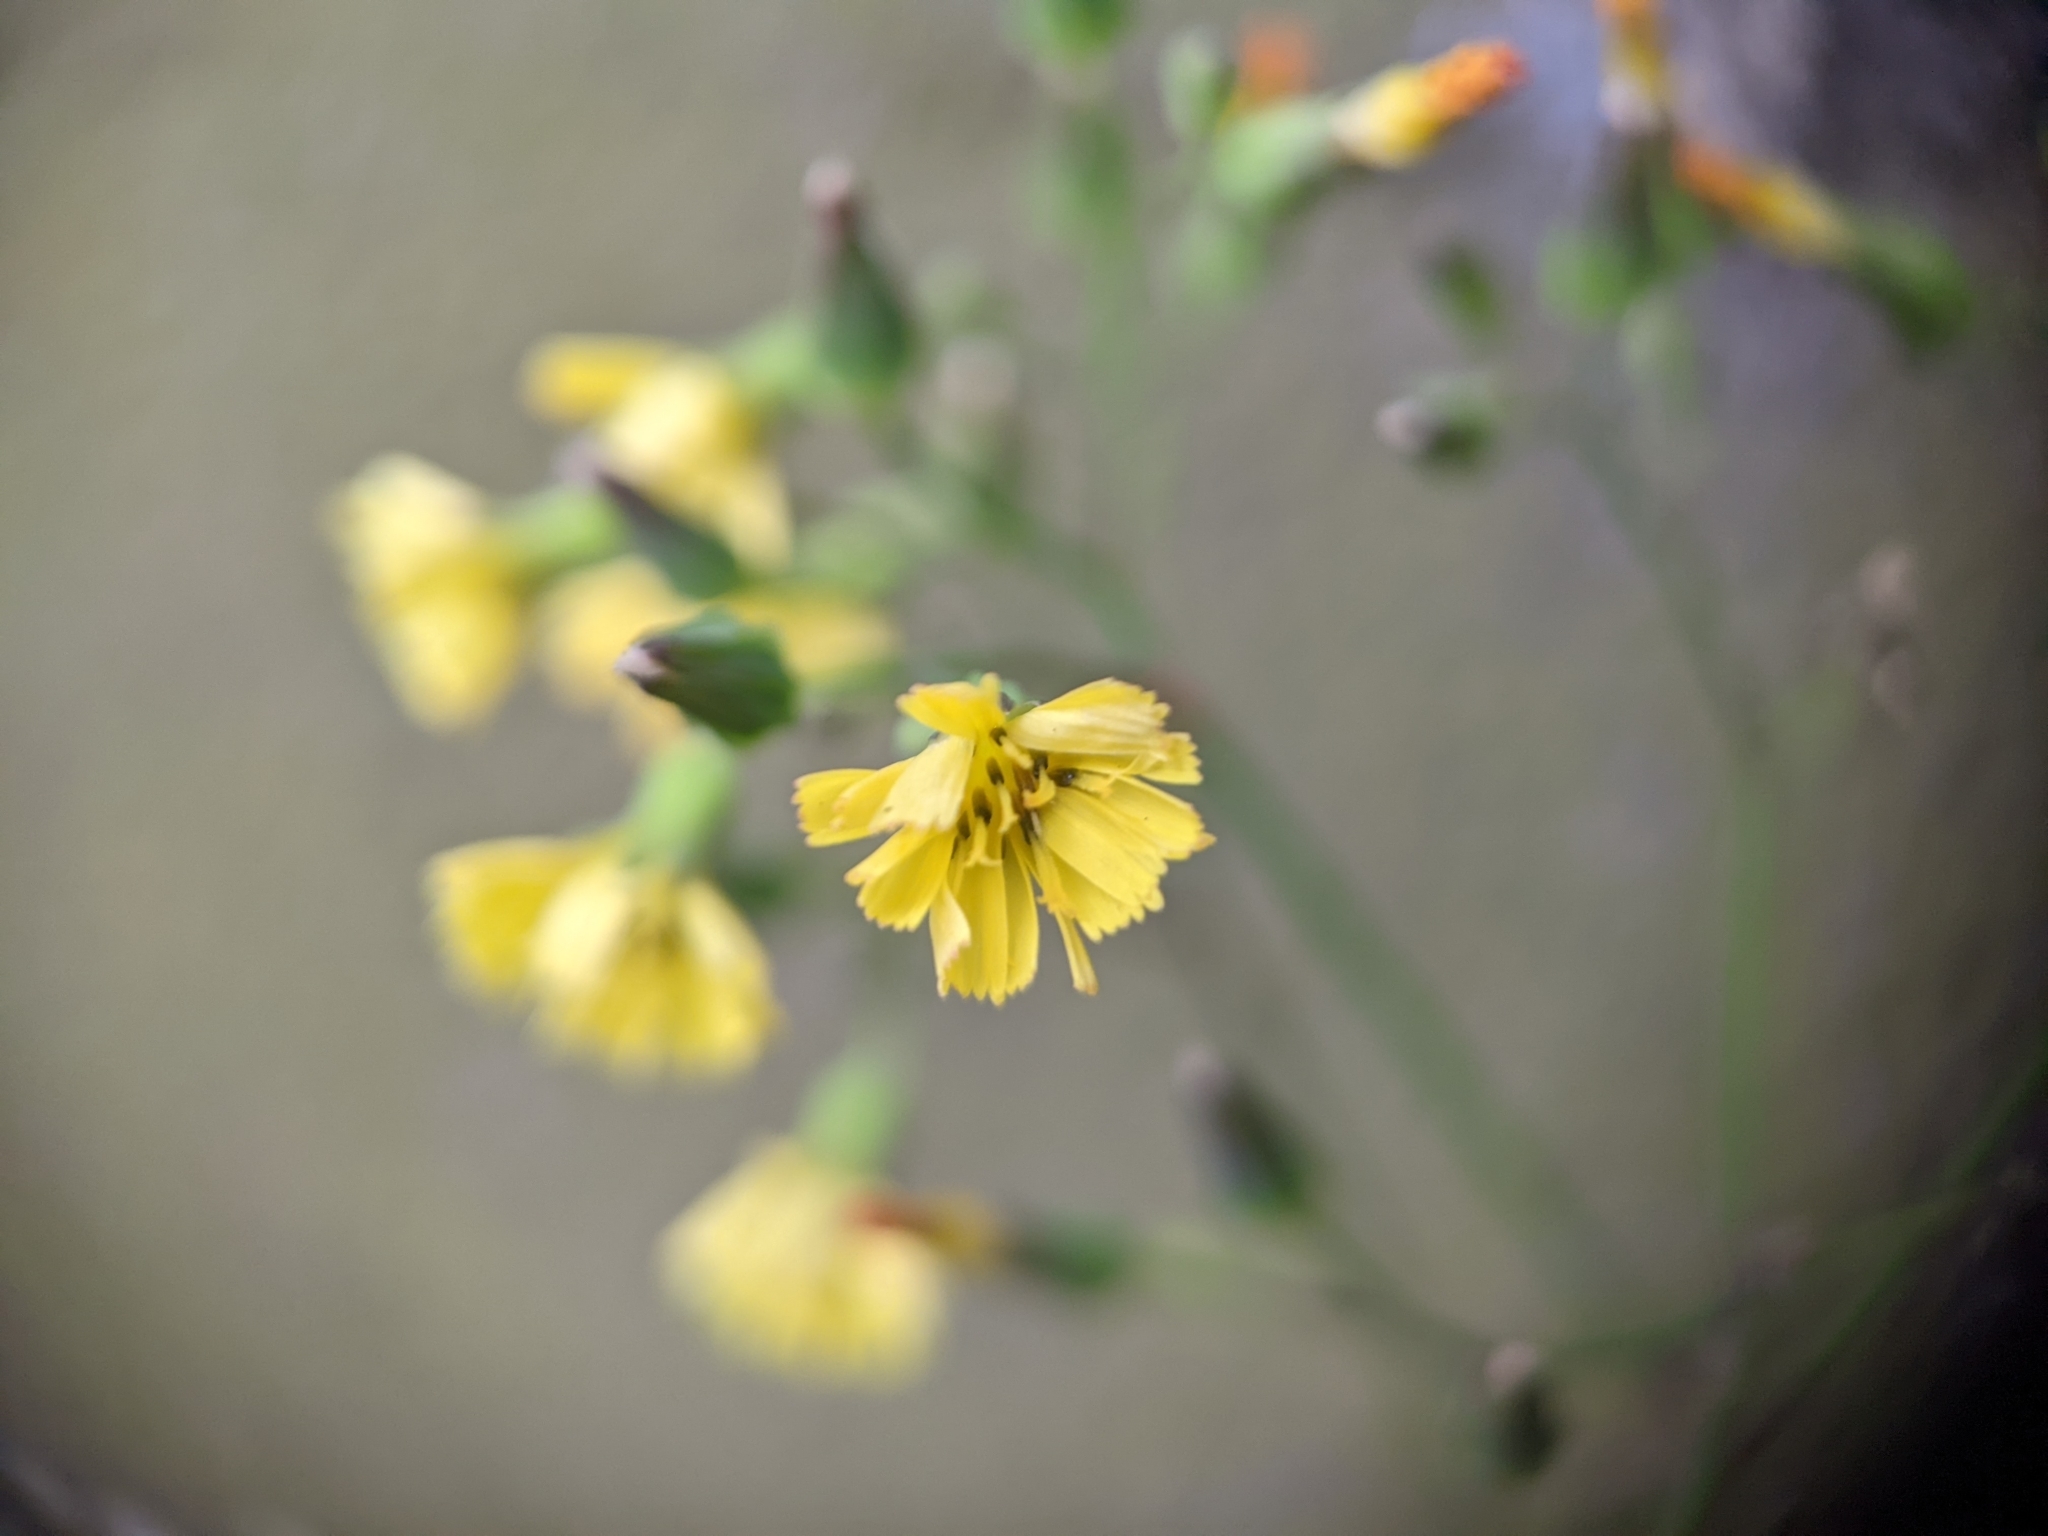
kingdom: Plantae
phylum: Tracheophyta
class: Magnoliopsida
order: Asterales
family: Asteraceae
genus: Youngia
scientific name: Youngia japonica
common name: Oriental false hawksbeard
